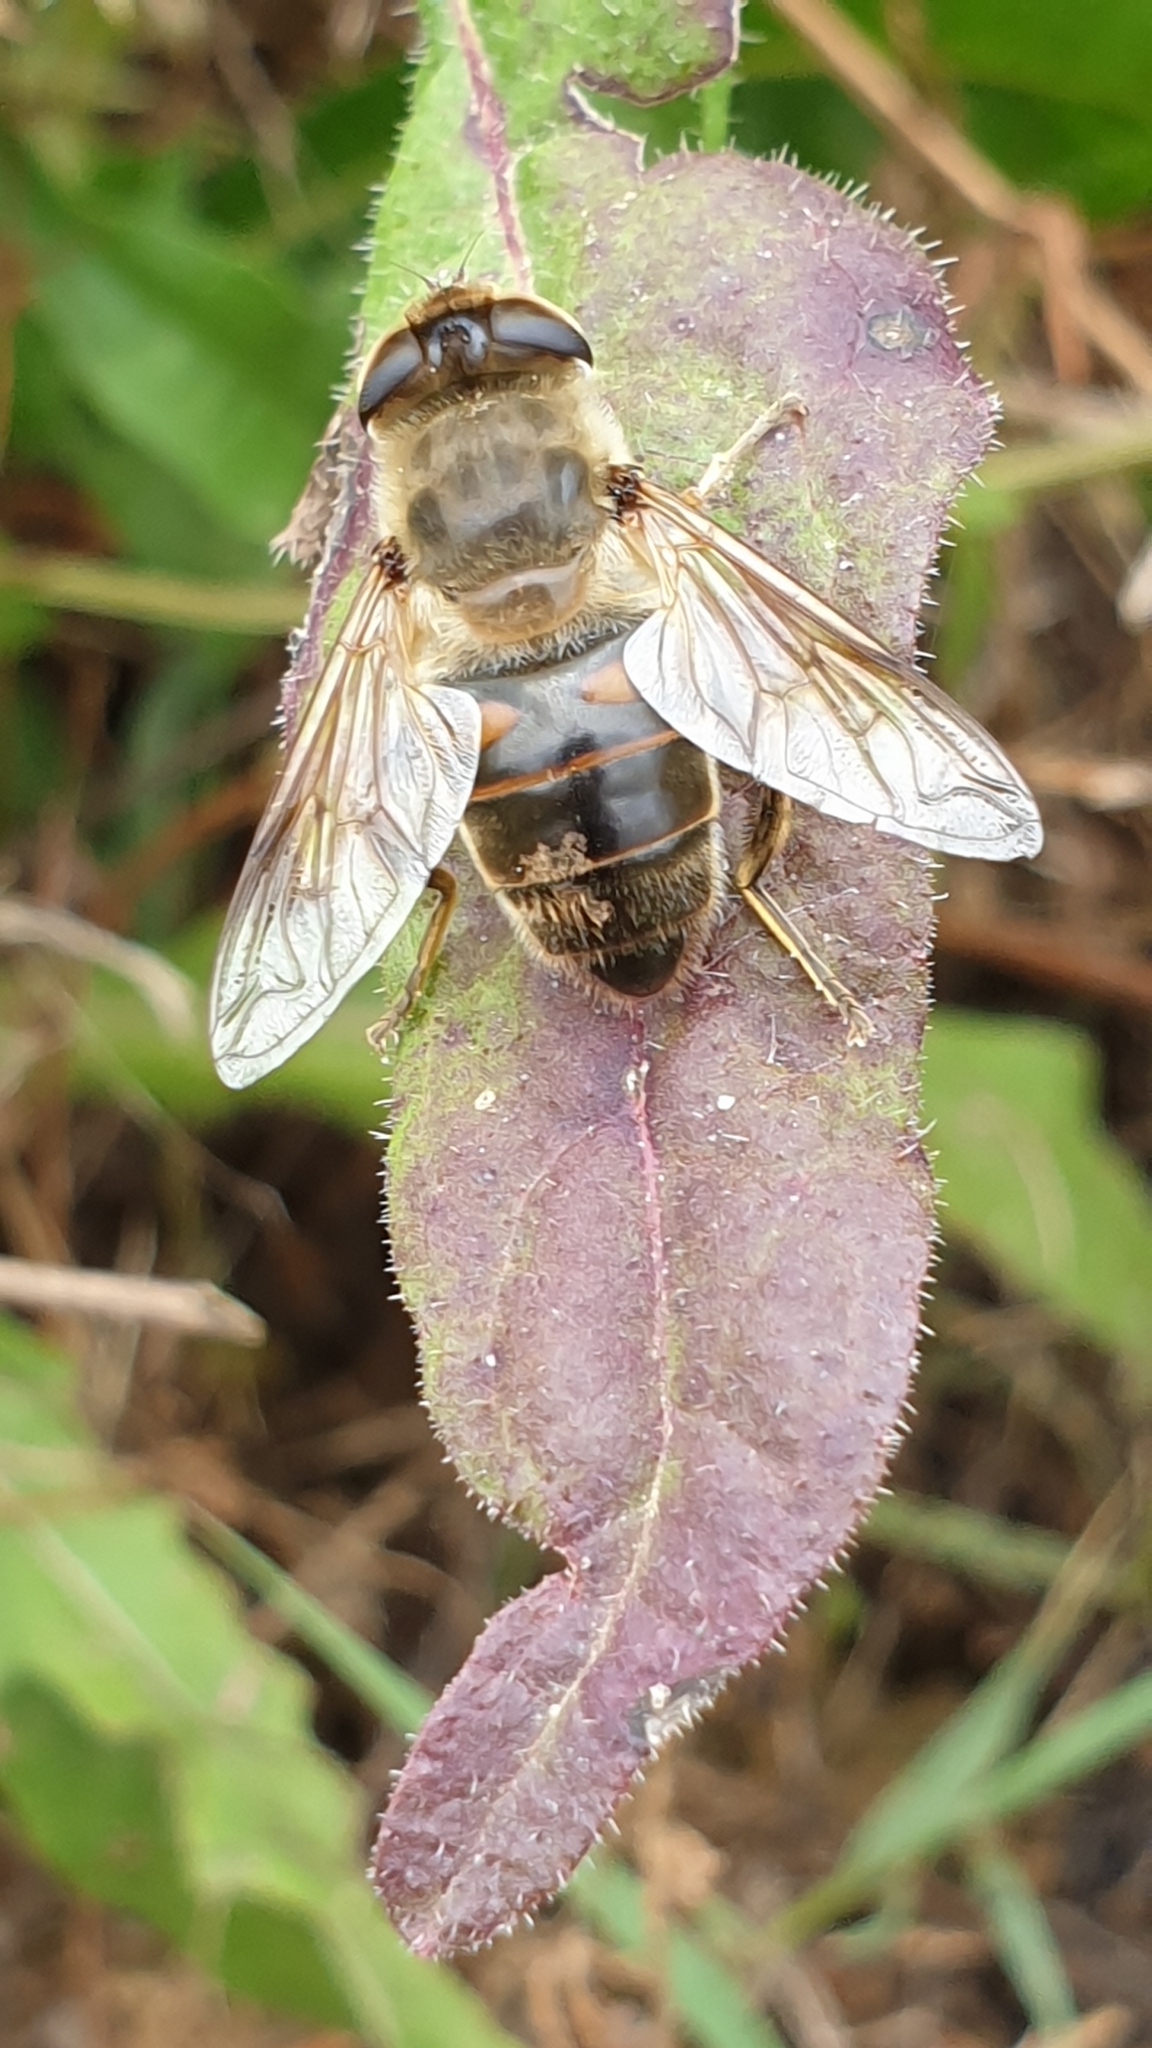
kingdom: Animalia
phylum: Arthropoda
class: Insecta
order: Diptera
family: Syrphidae
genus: Eristalis
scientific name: Eristalis tenax
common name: Drone fly
